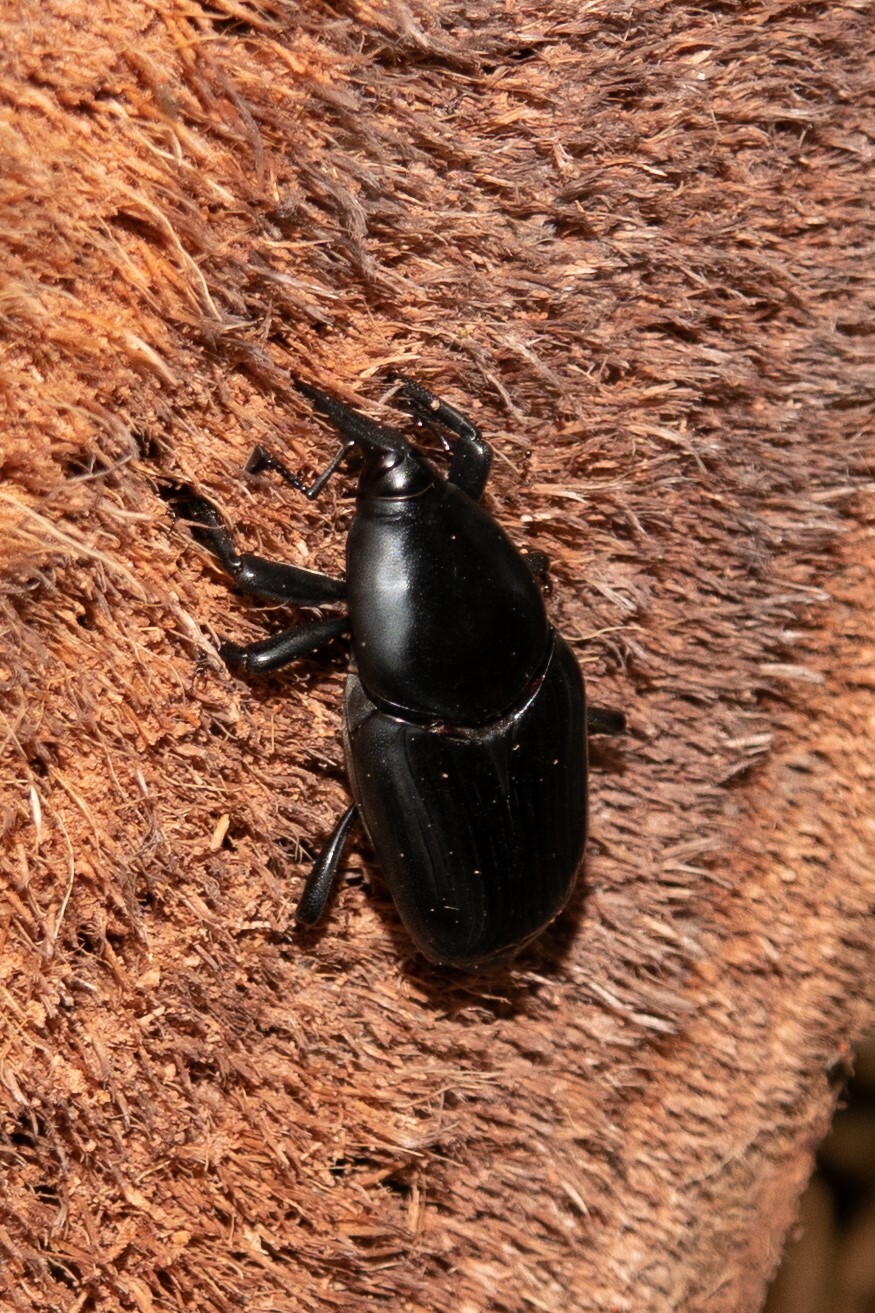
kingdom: Animalia
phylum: Arthropoda
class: Insecta
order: Coleoptera
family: Dryophthoridae
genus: Rhynchophorus
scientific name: Rhynchophorus palmarum
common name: Palm weevil
